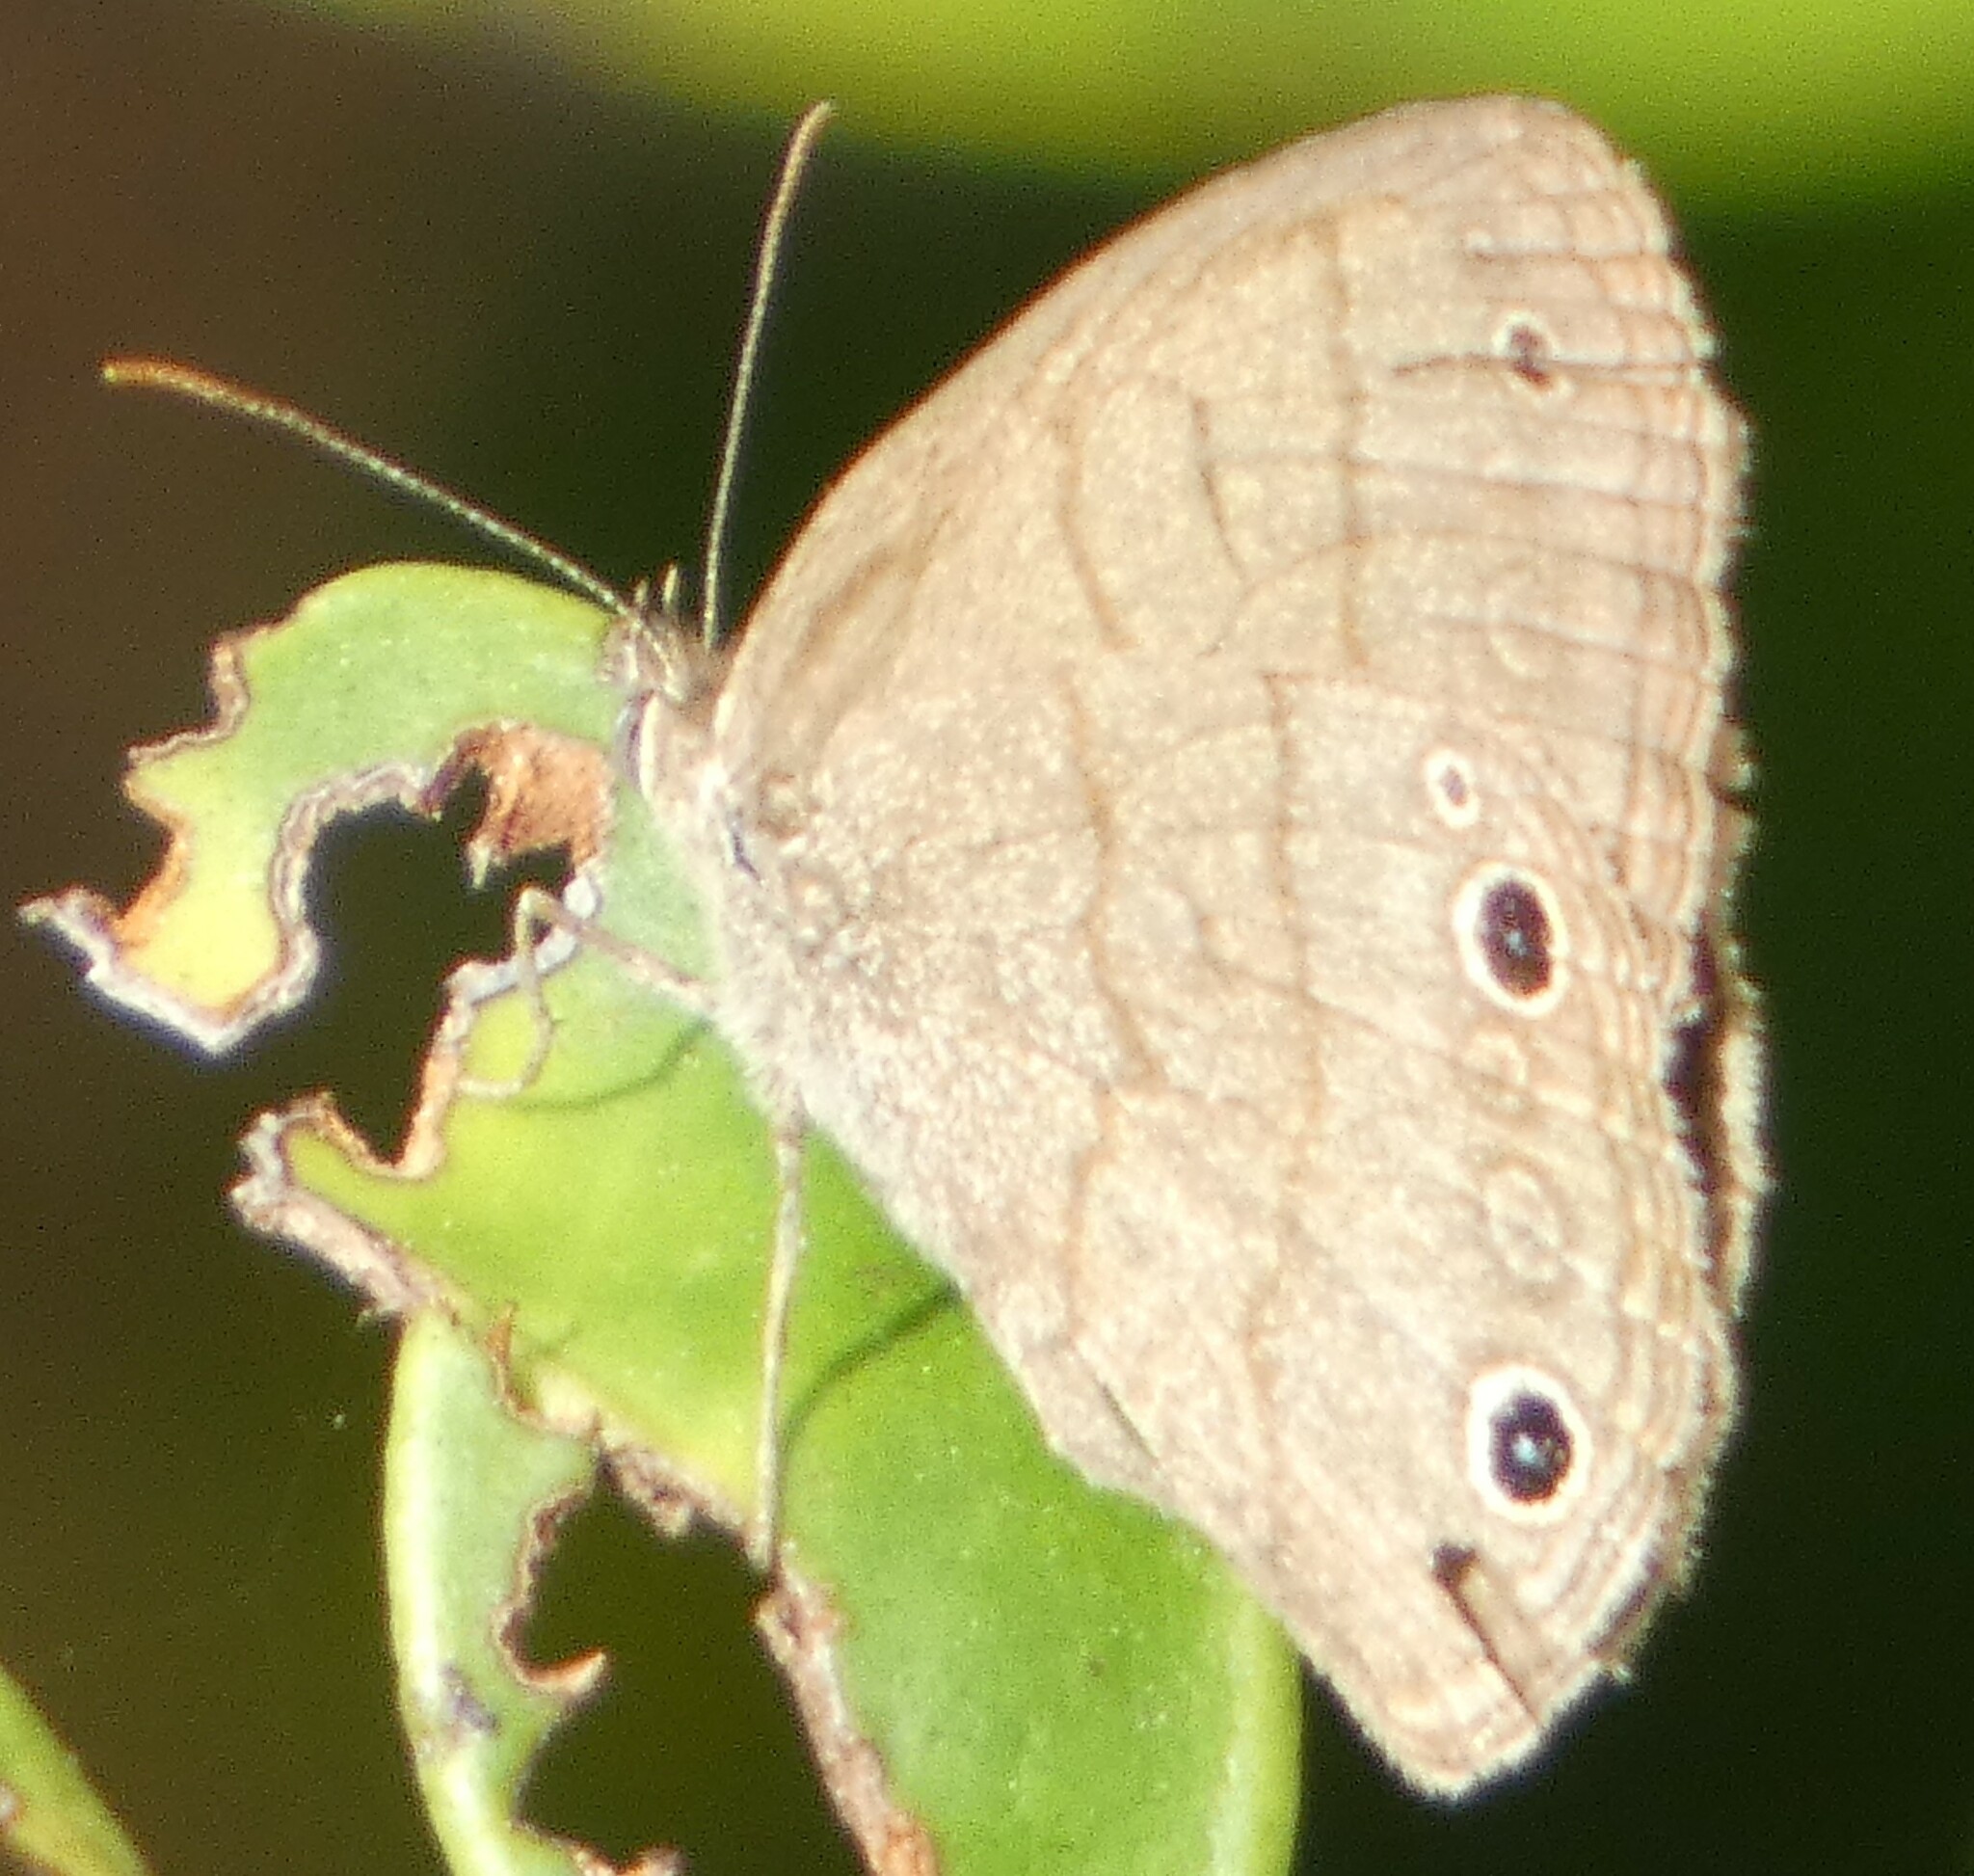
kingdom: Animalia
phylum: Arthropoda
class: Insecta
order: Lepidoptera
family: Nymphalidae
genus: Hermeuptychia
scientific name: Hermeuptychia hermes
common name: Hermes satyr
